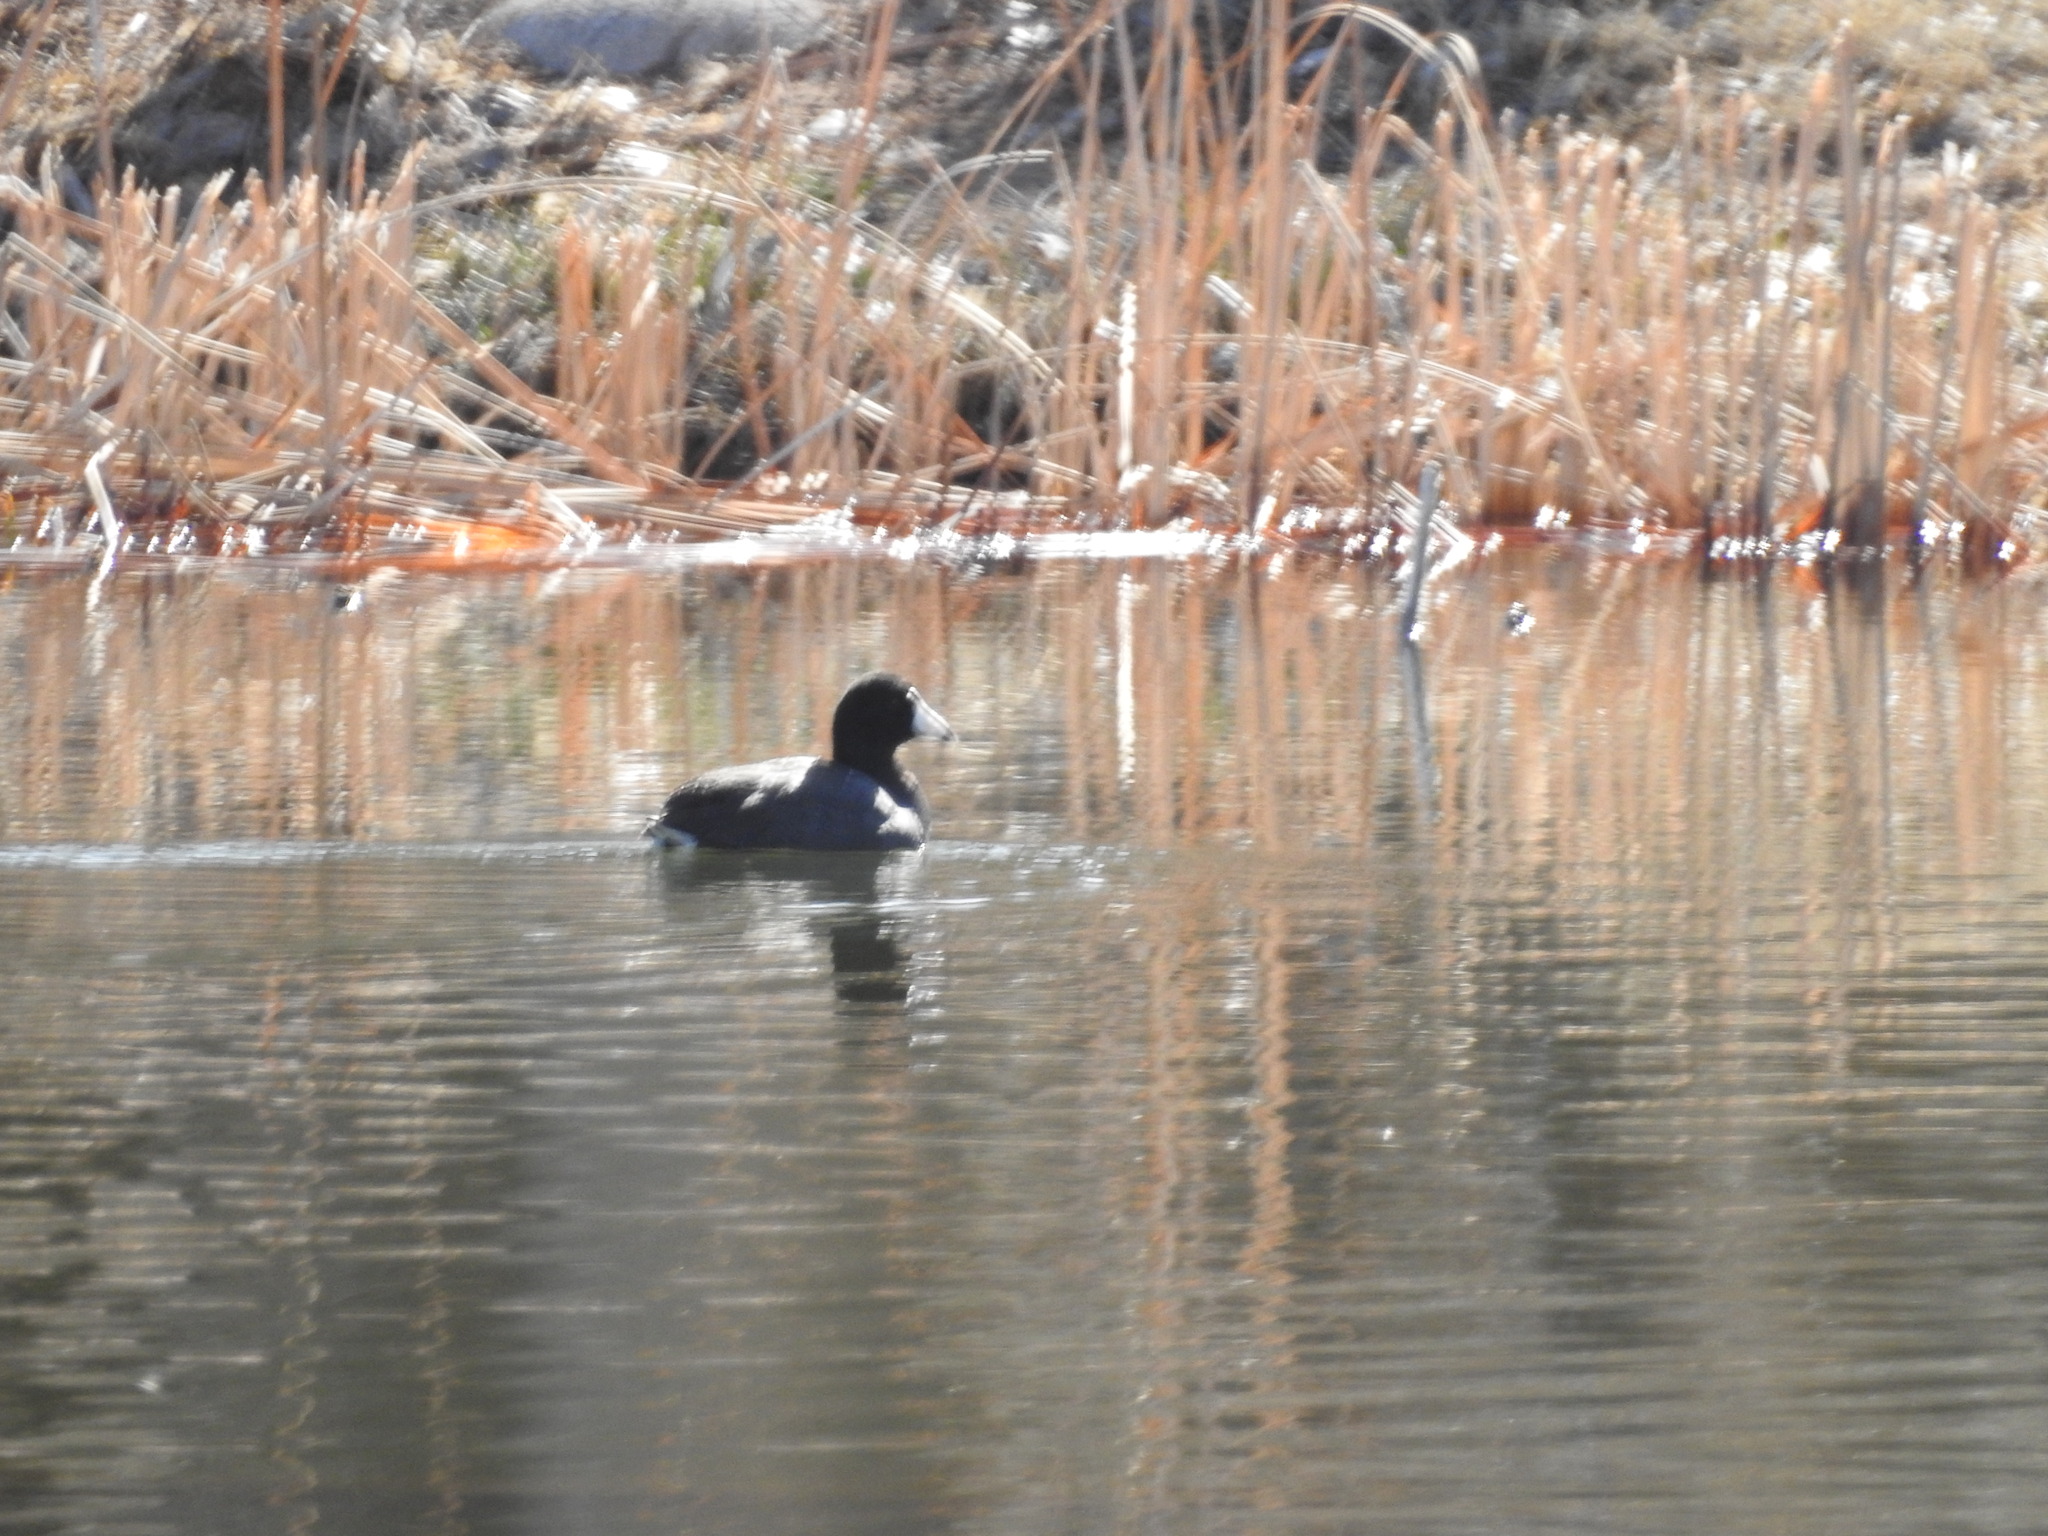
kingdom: Animalia
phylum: Chordata
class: Aves
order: Gruiformes
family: Rallidae
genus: Fulica
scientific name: Fulica americana
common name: American coot
